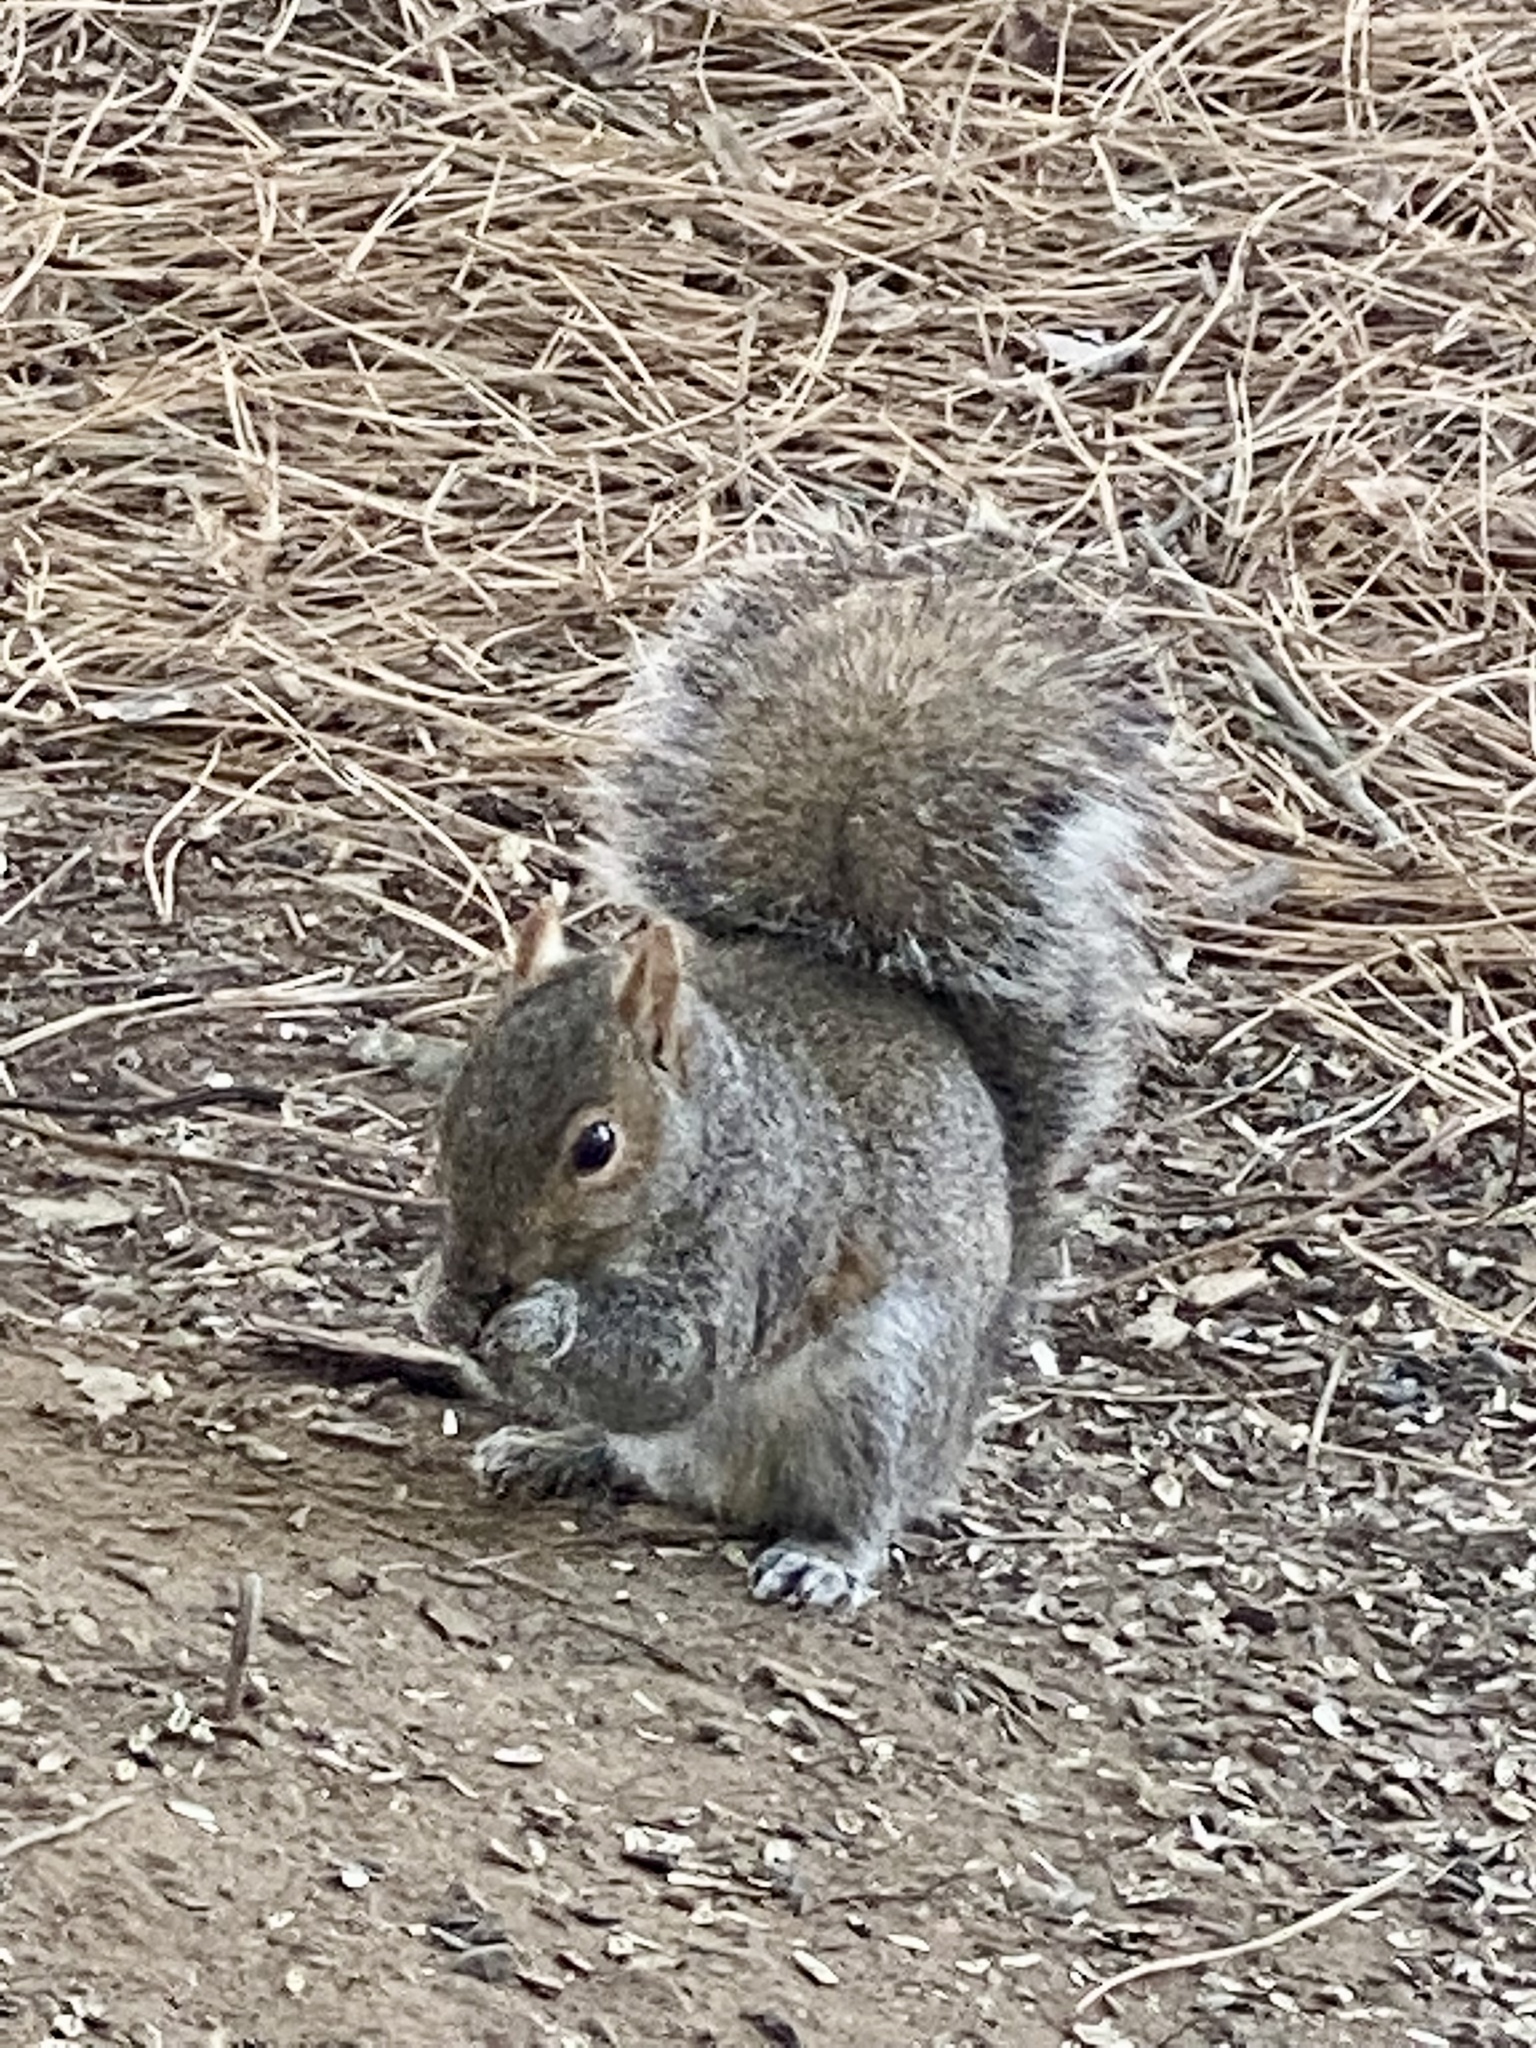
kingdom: Animalia
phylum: Chordata
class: Mammalia
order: Rodentia
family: Sciuridae
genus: Sciurus
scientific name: Sciurus carolinensis
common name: Eastern gray squirrel
